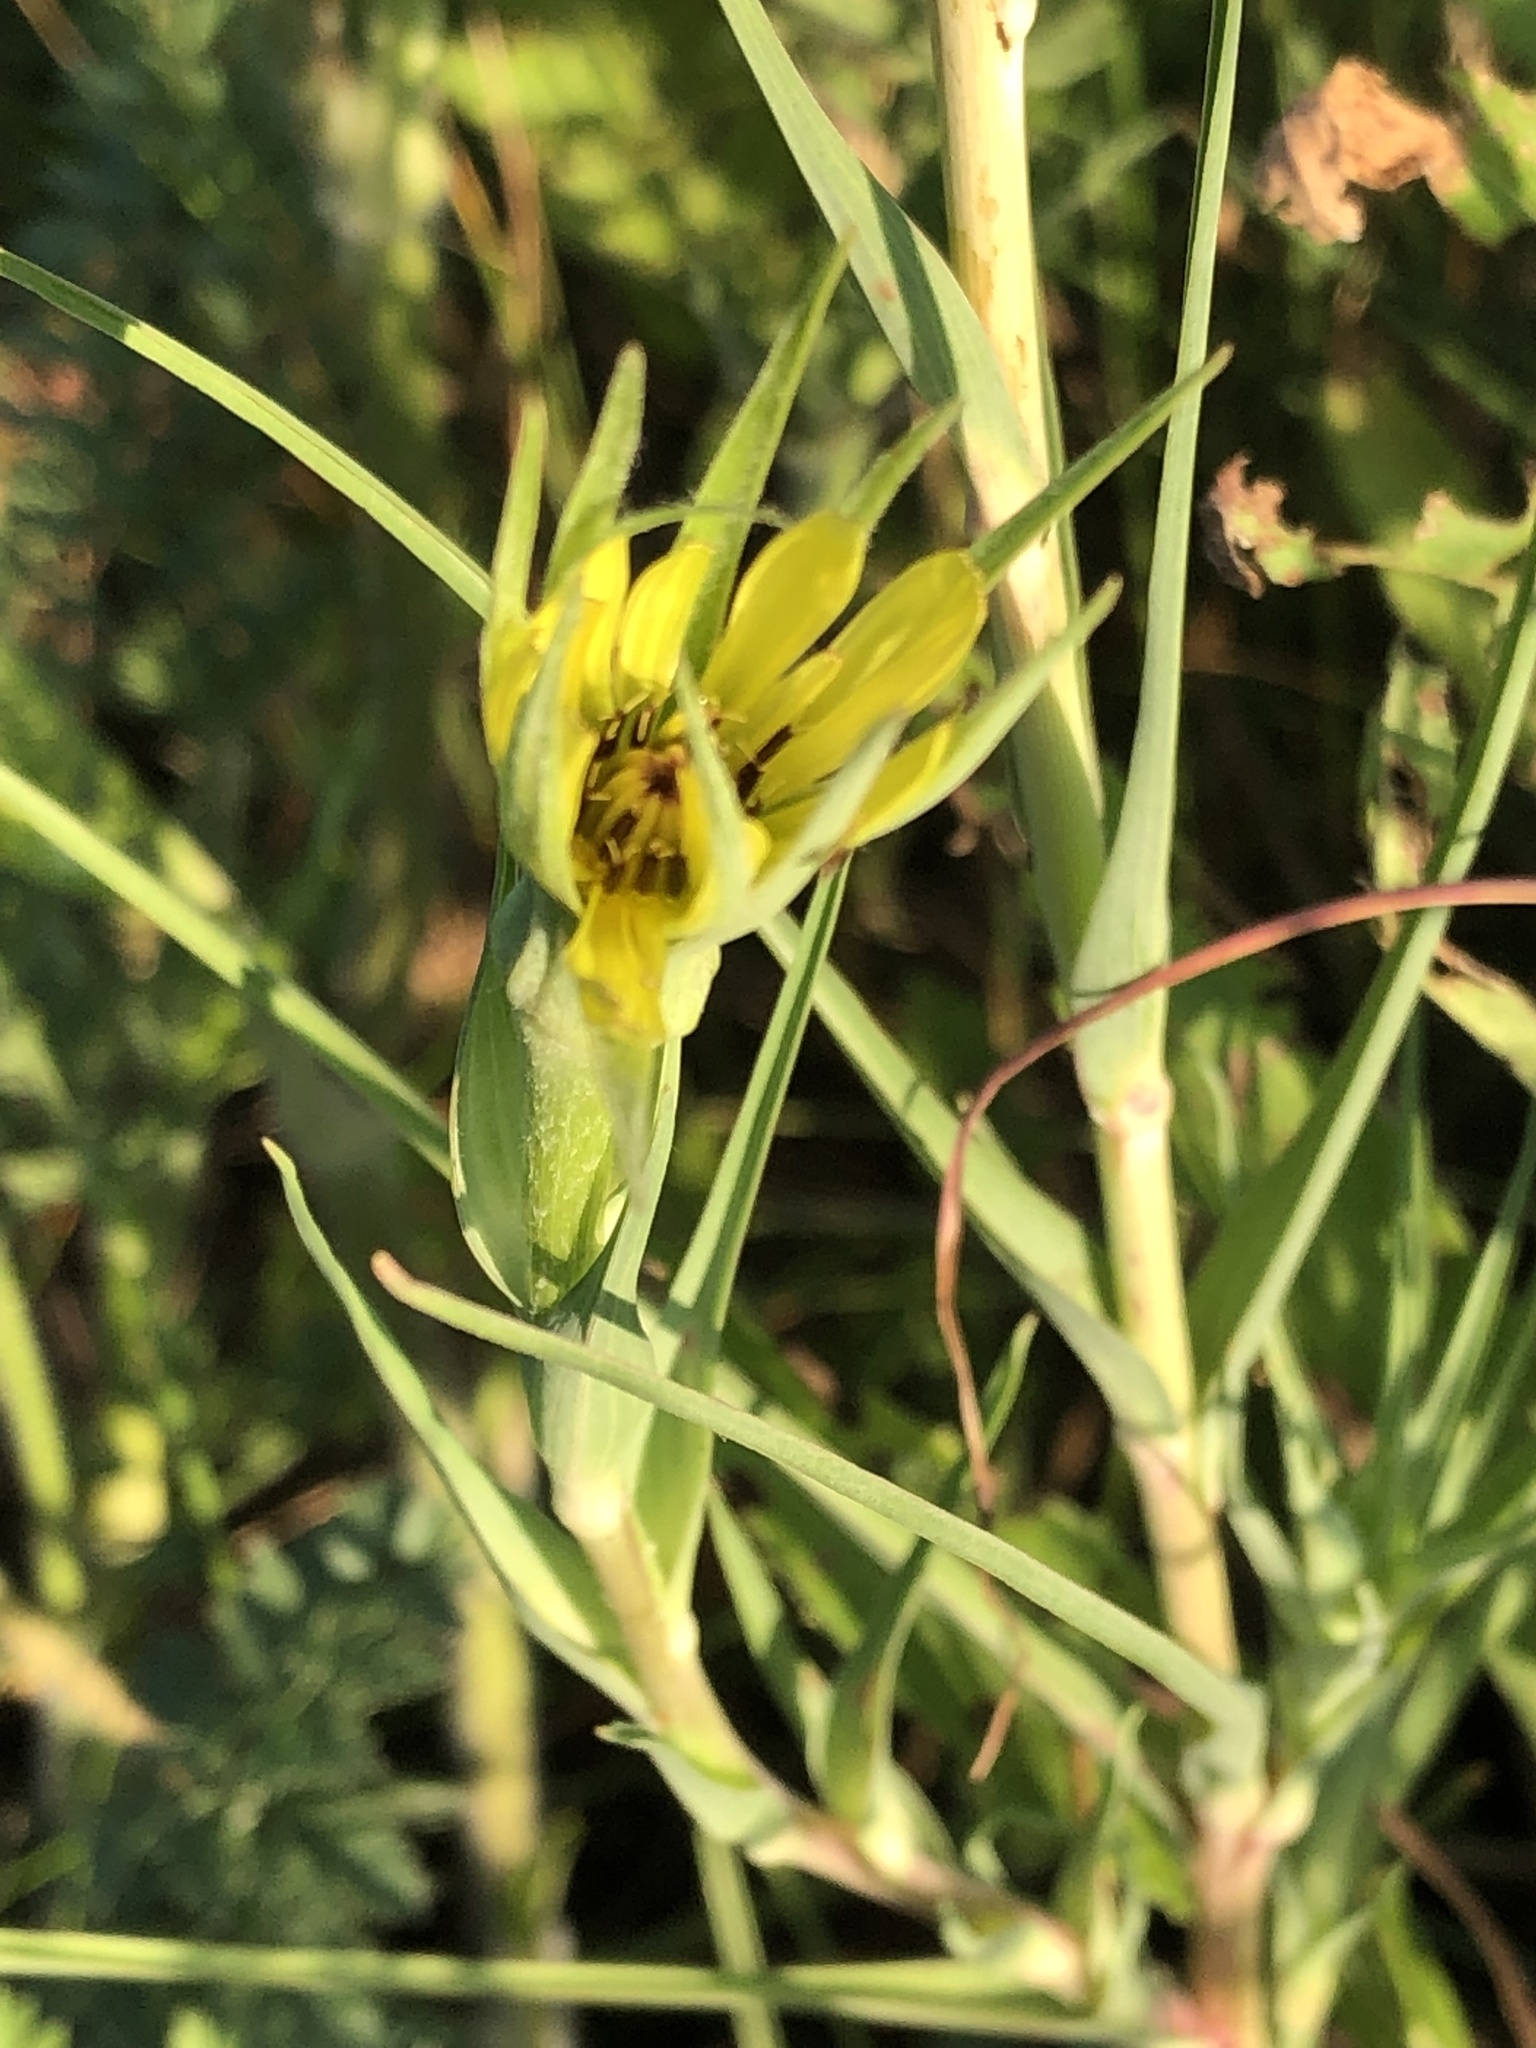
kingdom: Plantae
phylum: Tracheophyta
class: Magnoliopsida
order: Asterales
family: Asteraceae
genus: Tragopogon
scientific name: Tragopogon dubius
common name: Yellow salsify
